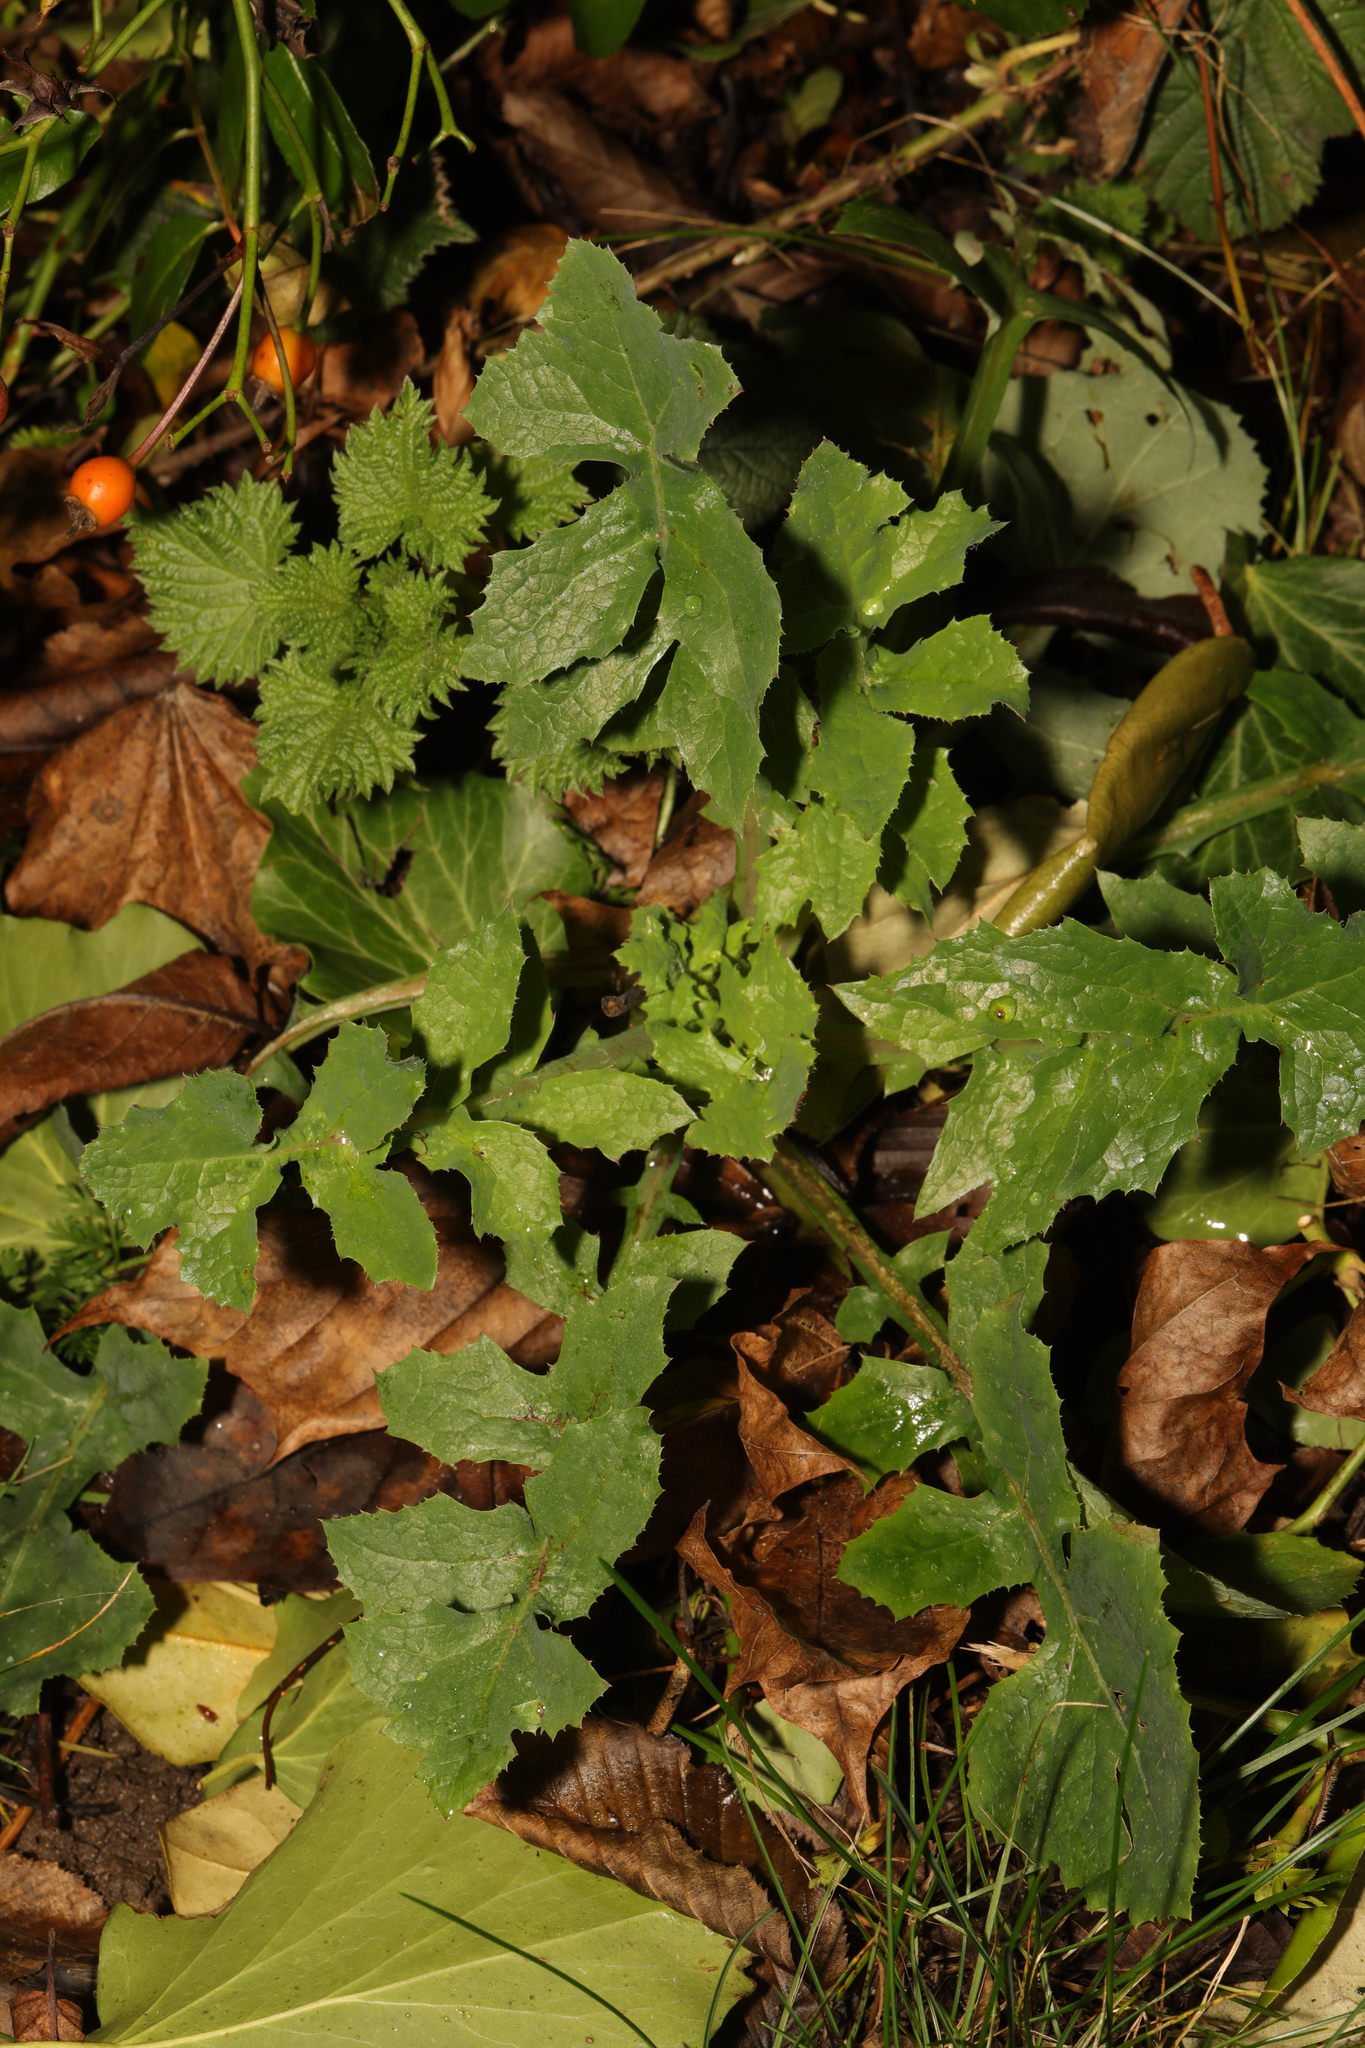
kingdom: Plantae
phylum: Tracheophyta
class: Magnoliopsida
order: Asterales
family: Asteraceae
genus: Sonchus
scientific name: Sonchus oleraceus
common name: Common sowthistle
